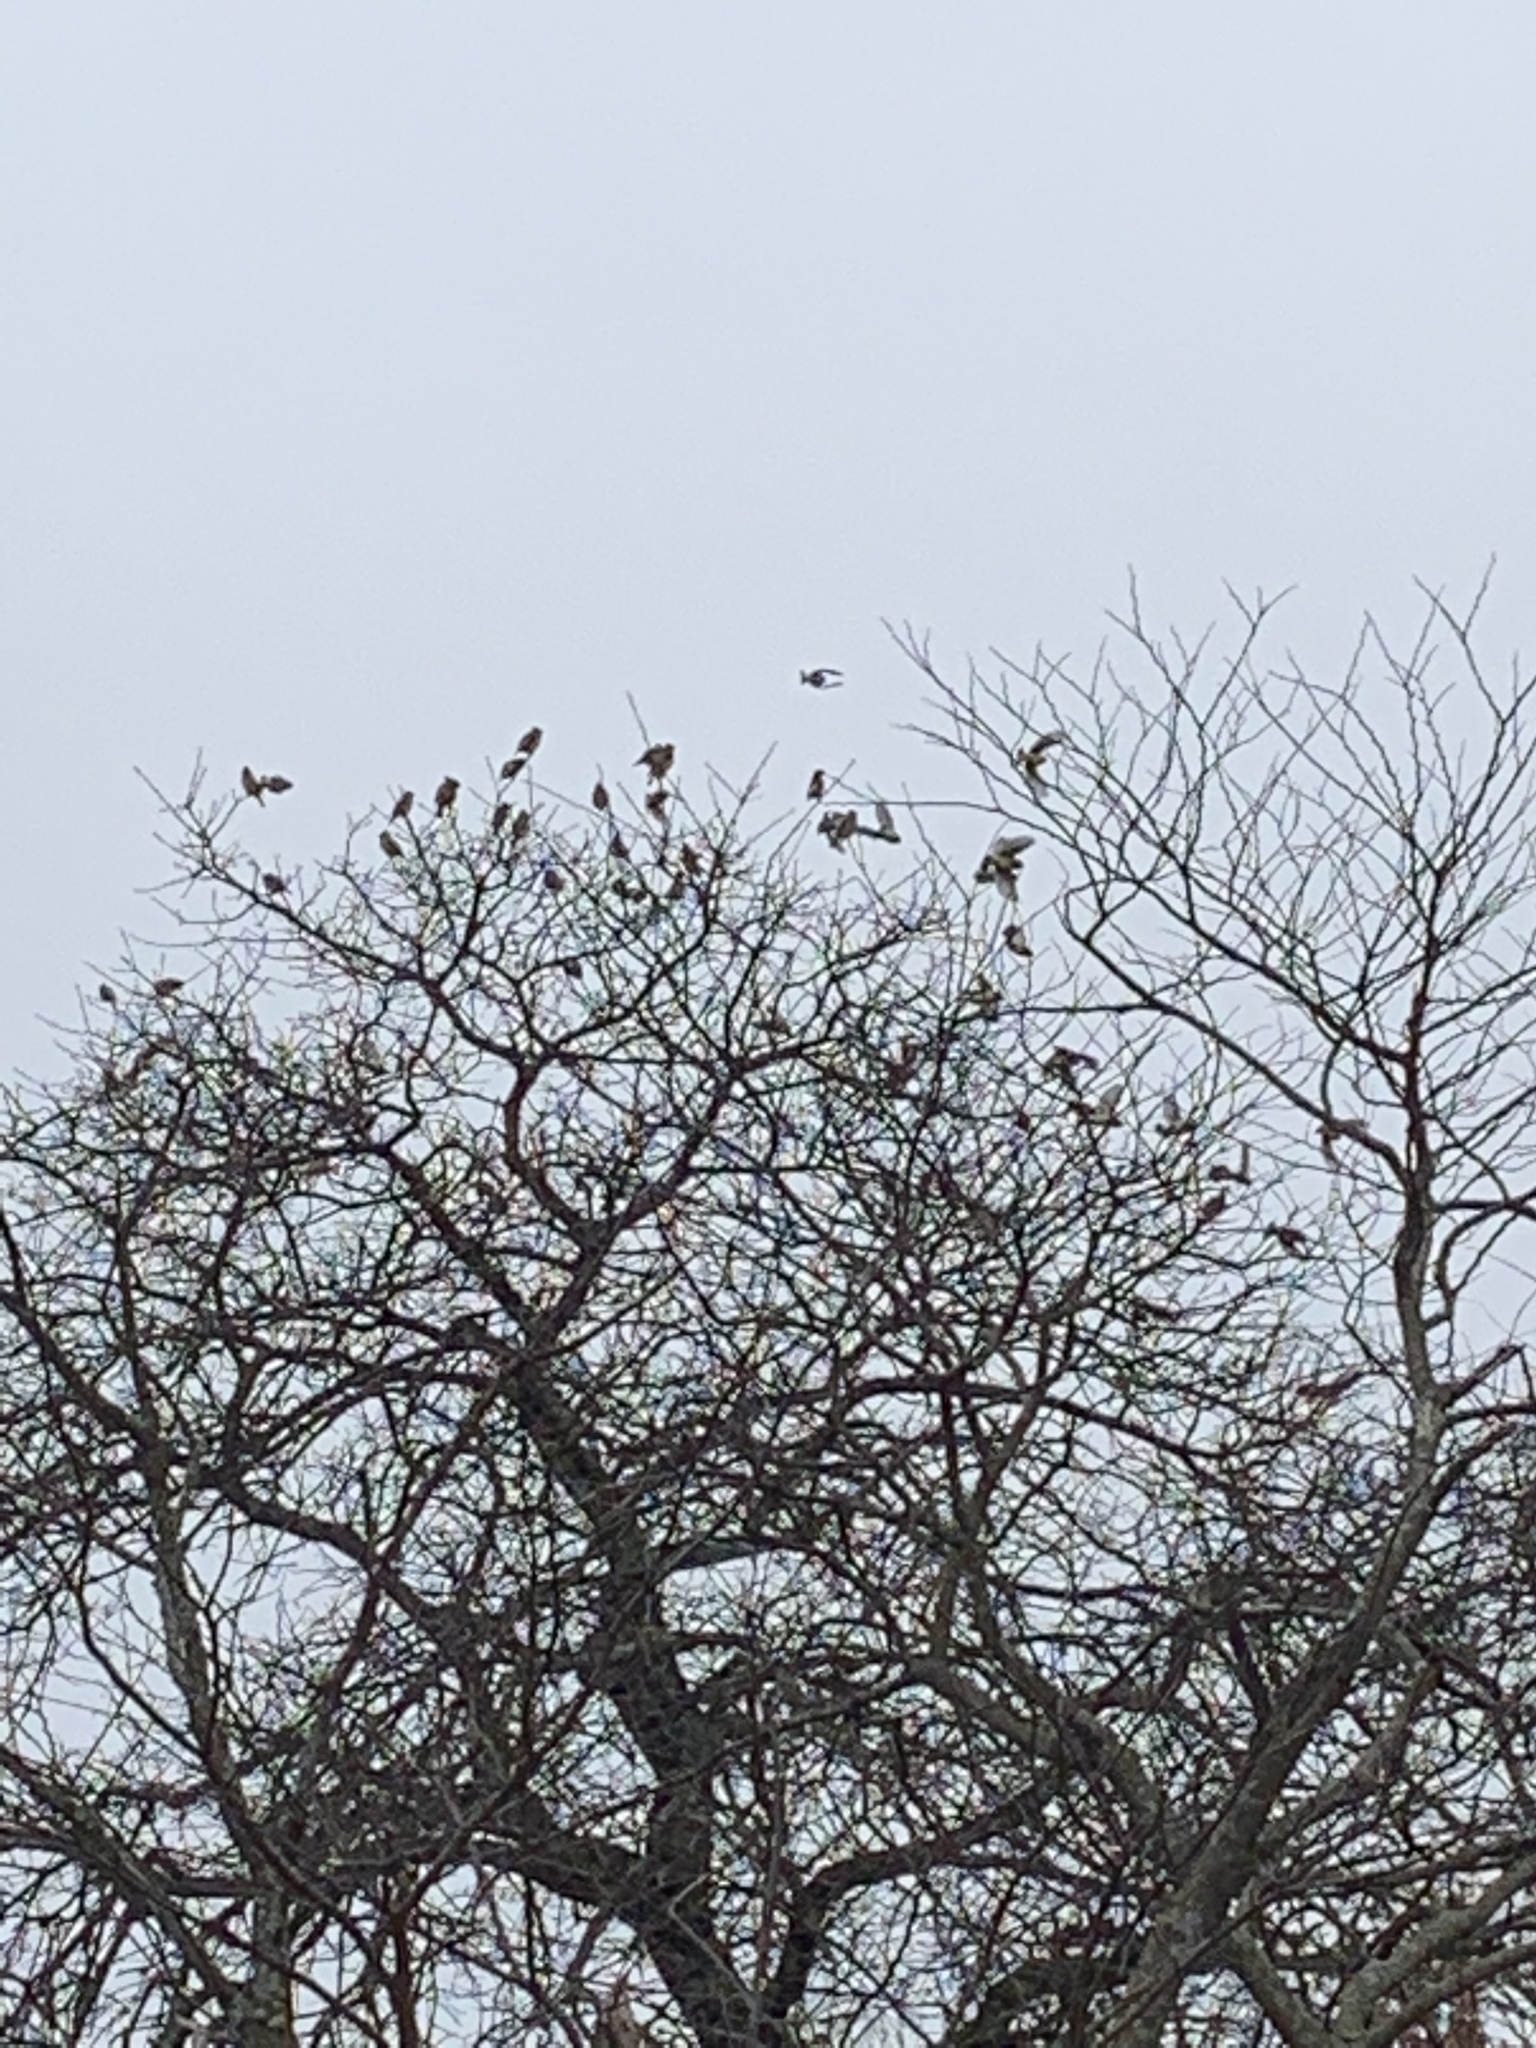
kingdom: Animalia
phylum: Chordata
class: Aves
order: Passeriformes
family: Bombycillidae
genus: Bombycilla
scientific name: Bombycilla cedrorum
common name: Cedar waxwing
